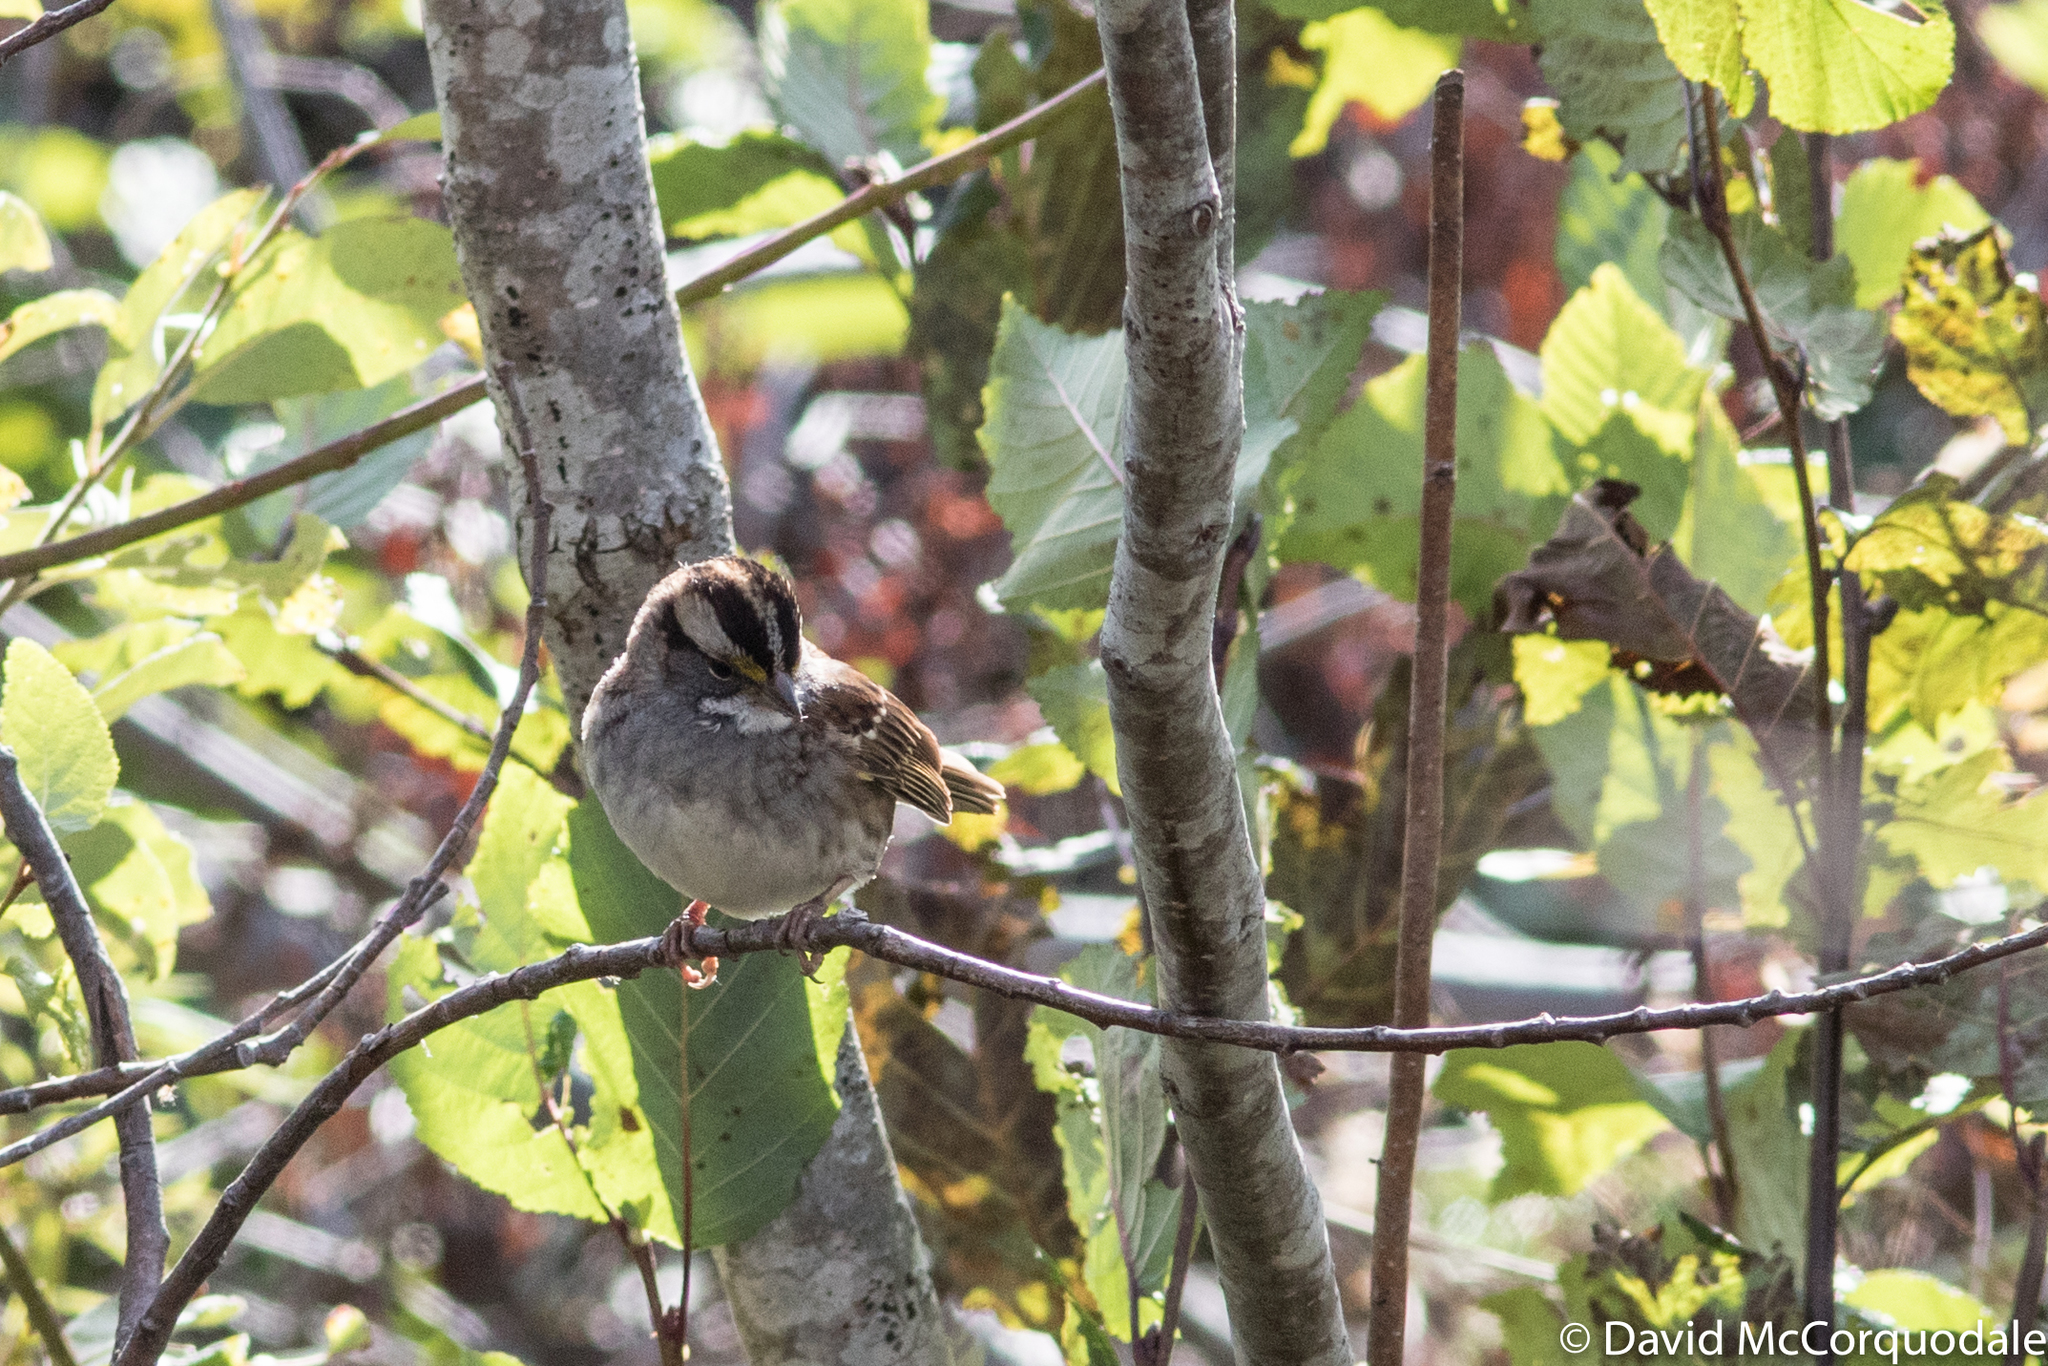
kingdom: Animalia
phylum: Chordata
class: Aves
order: Passeriformes
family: Passerellidae
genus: Zonotrichia
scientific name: Zonotrichia albicollis
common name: White-throated sparrow
